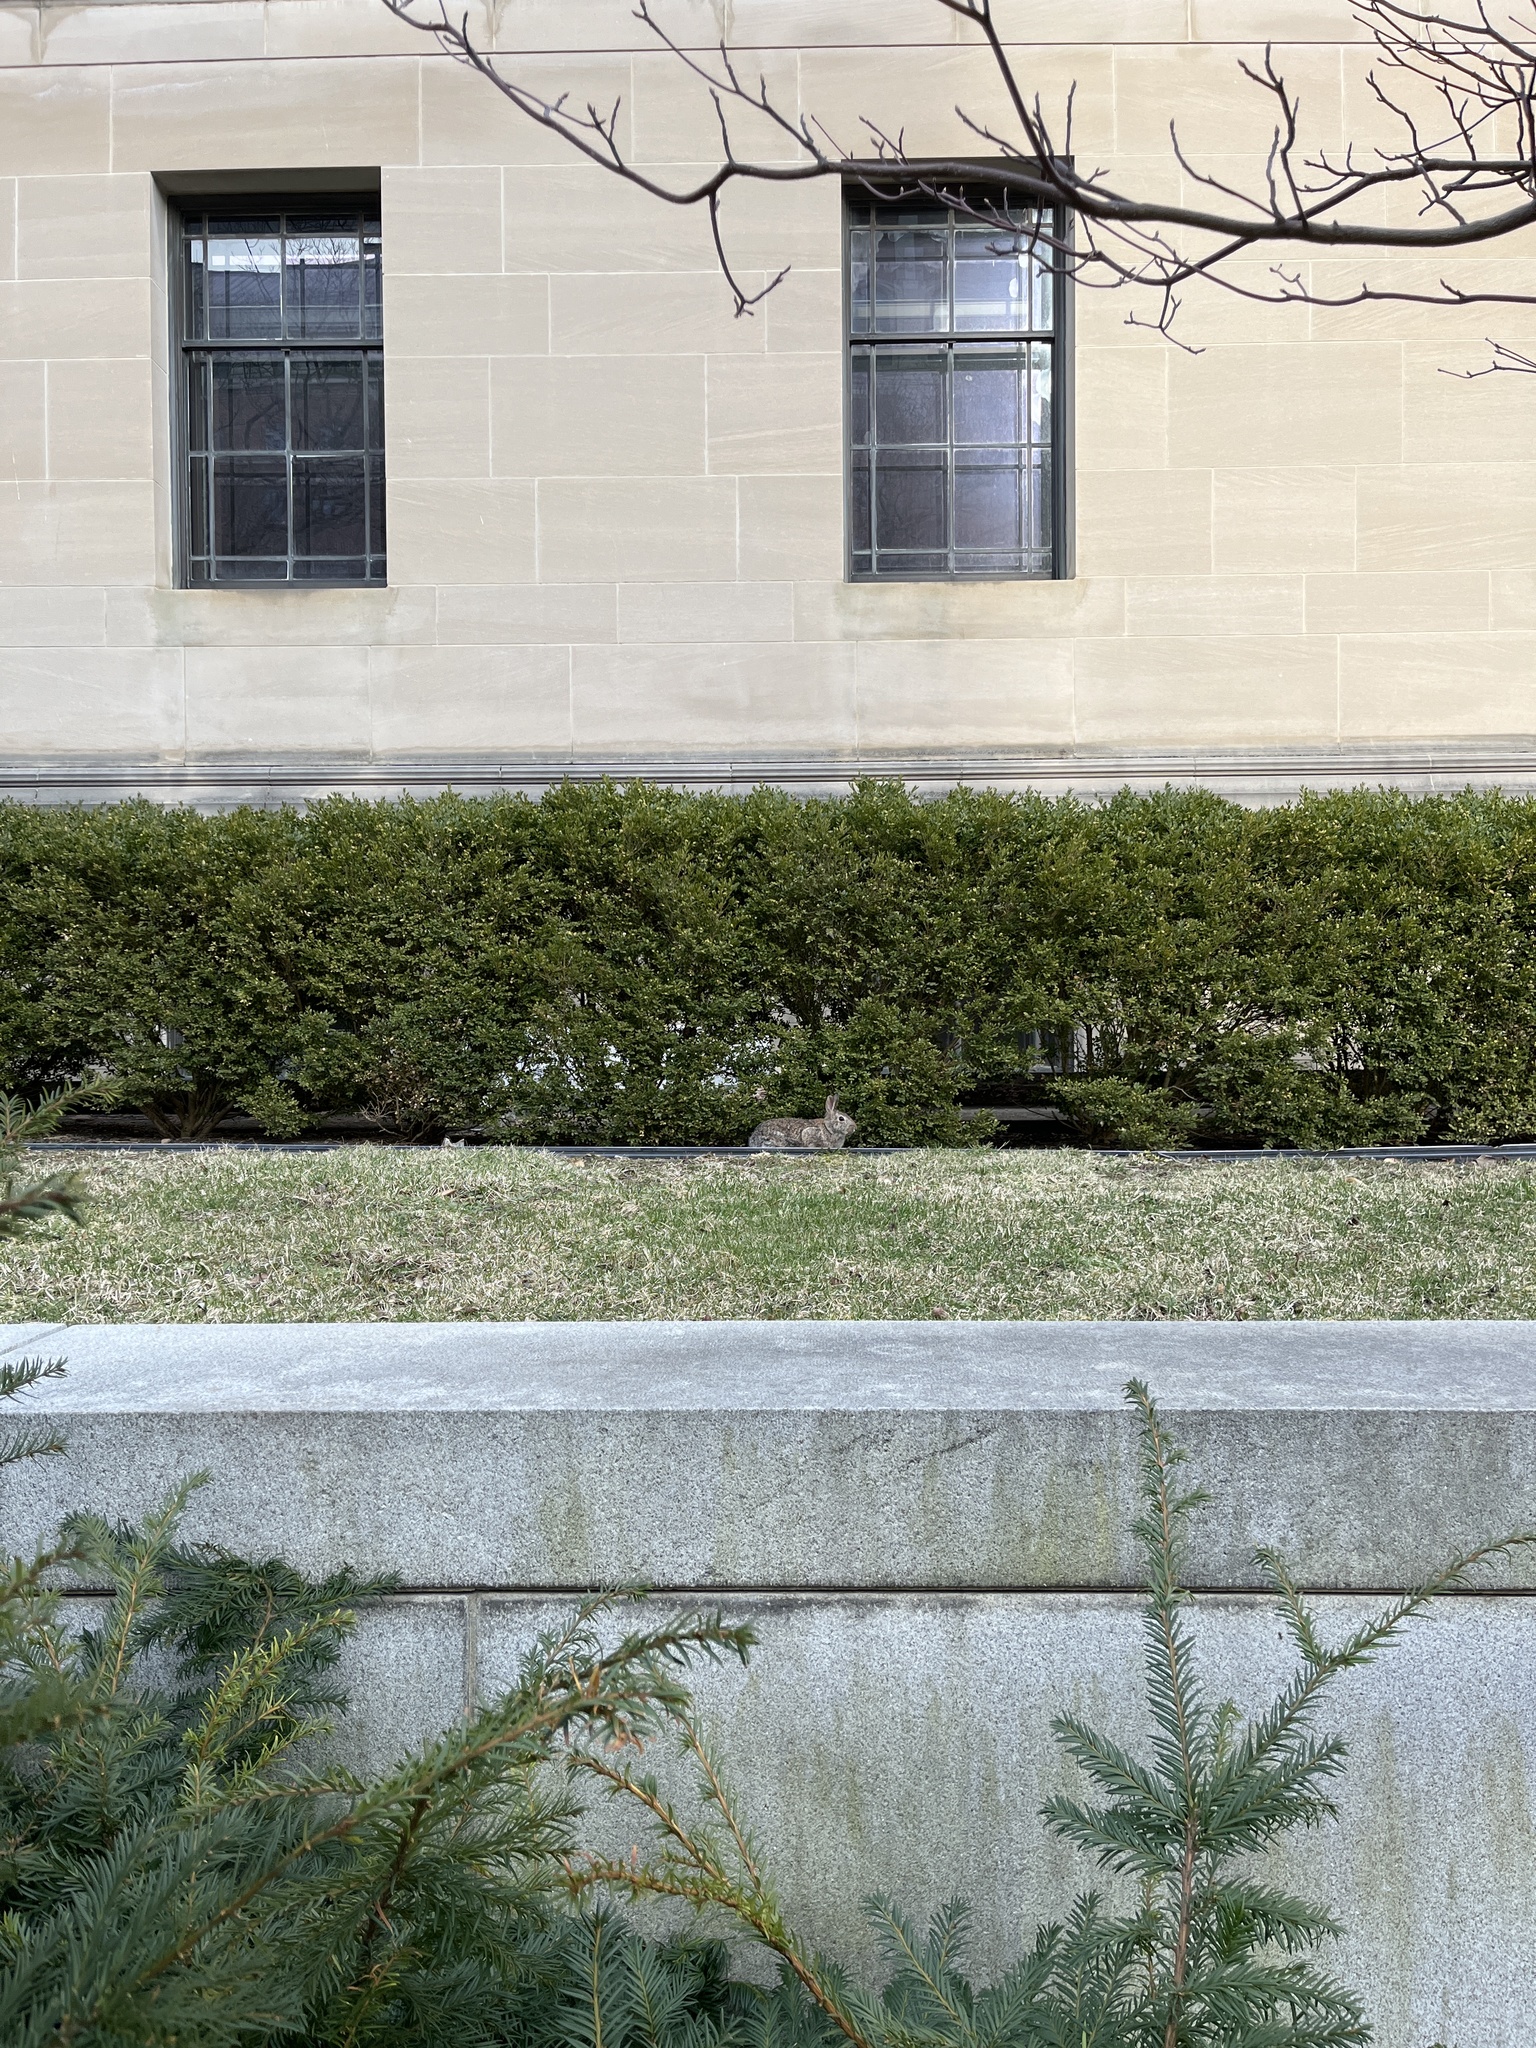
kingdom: Animalia
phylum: Chordata
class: Mammalia
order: Lagomorpha
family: Leporidae
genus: Sylvilagus
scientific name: Sylvilagus floridanus
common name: Eastern cottontail
